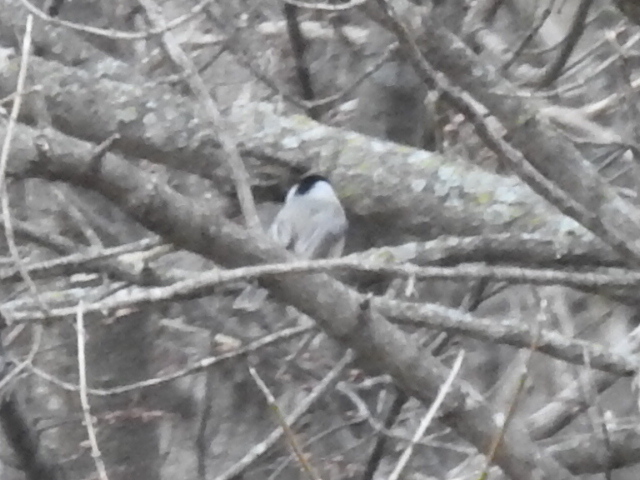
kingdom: Animalia
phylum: Chordata
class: Aves
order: Passeriformes
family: Paridae
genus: Poecile
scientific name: Poecile carolinensis
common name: Carolina chickadee
